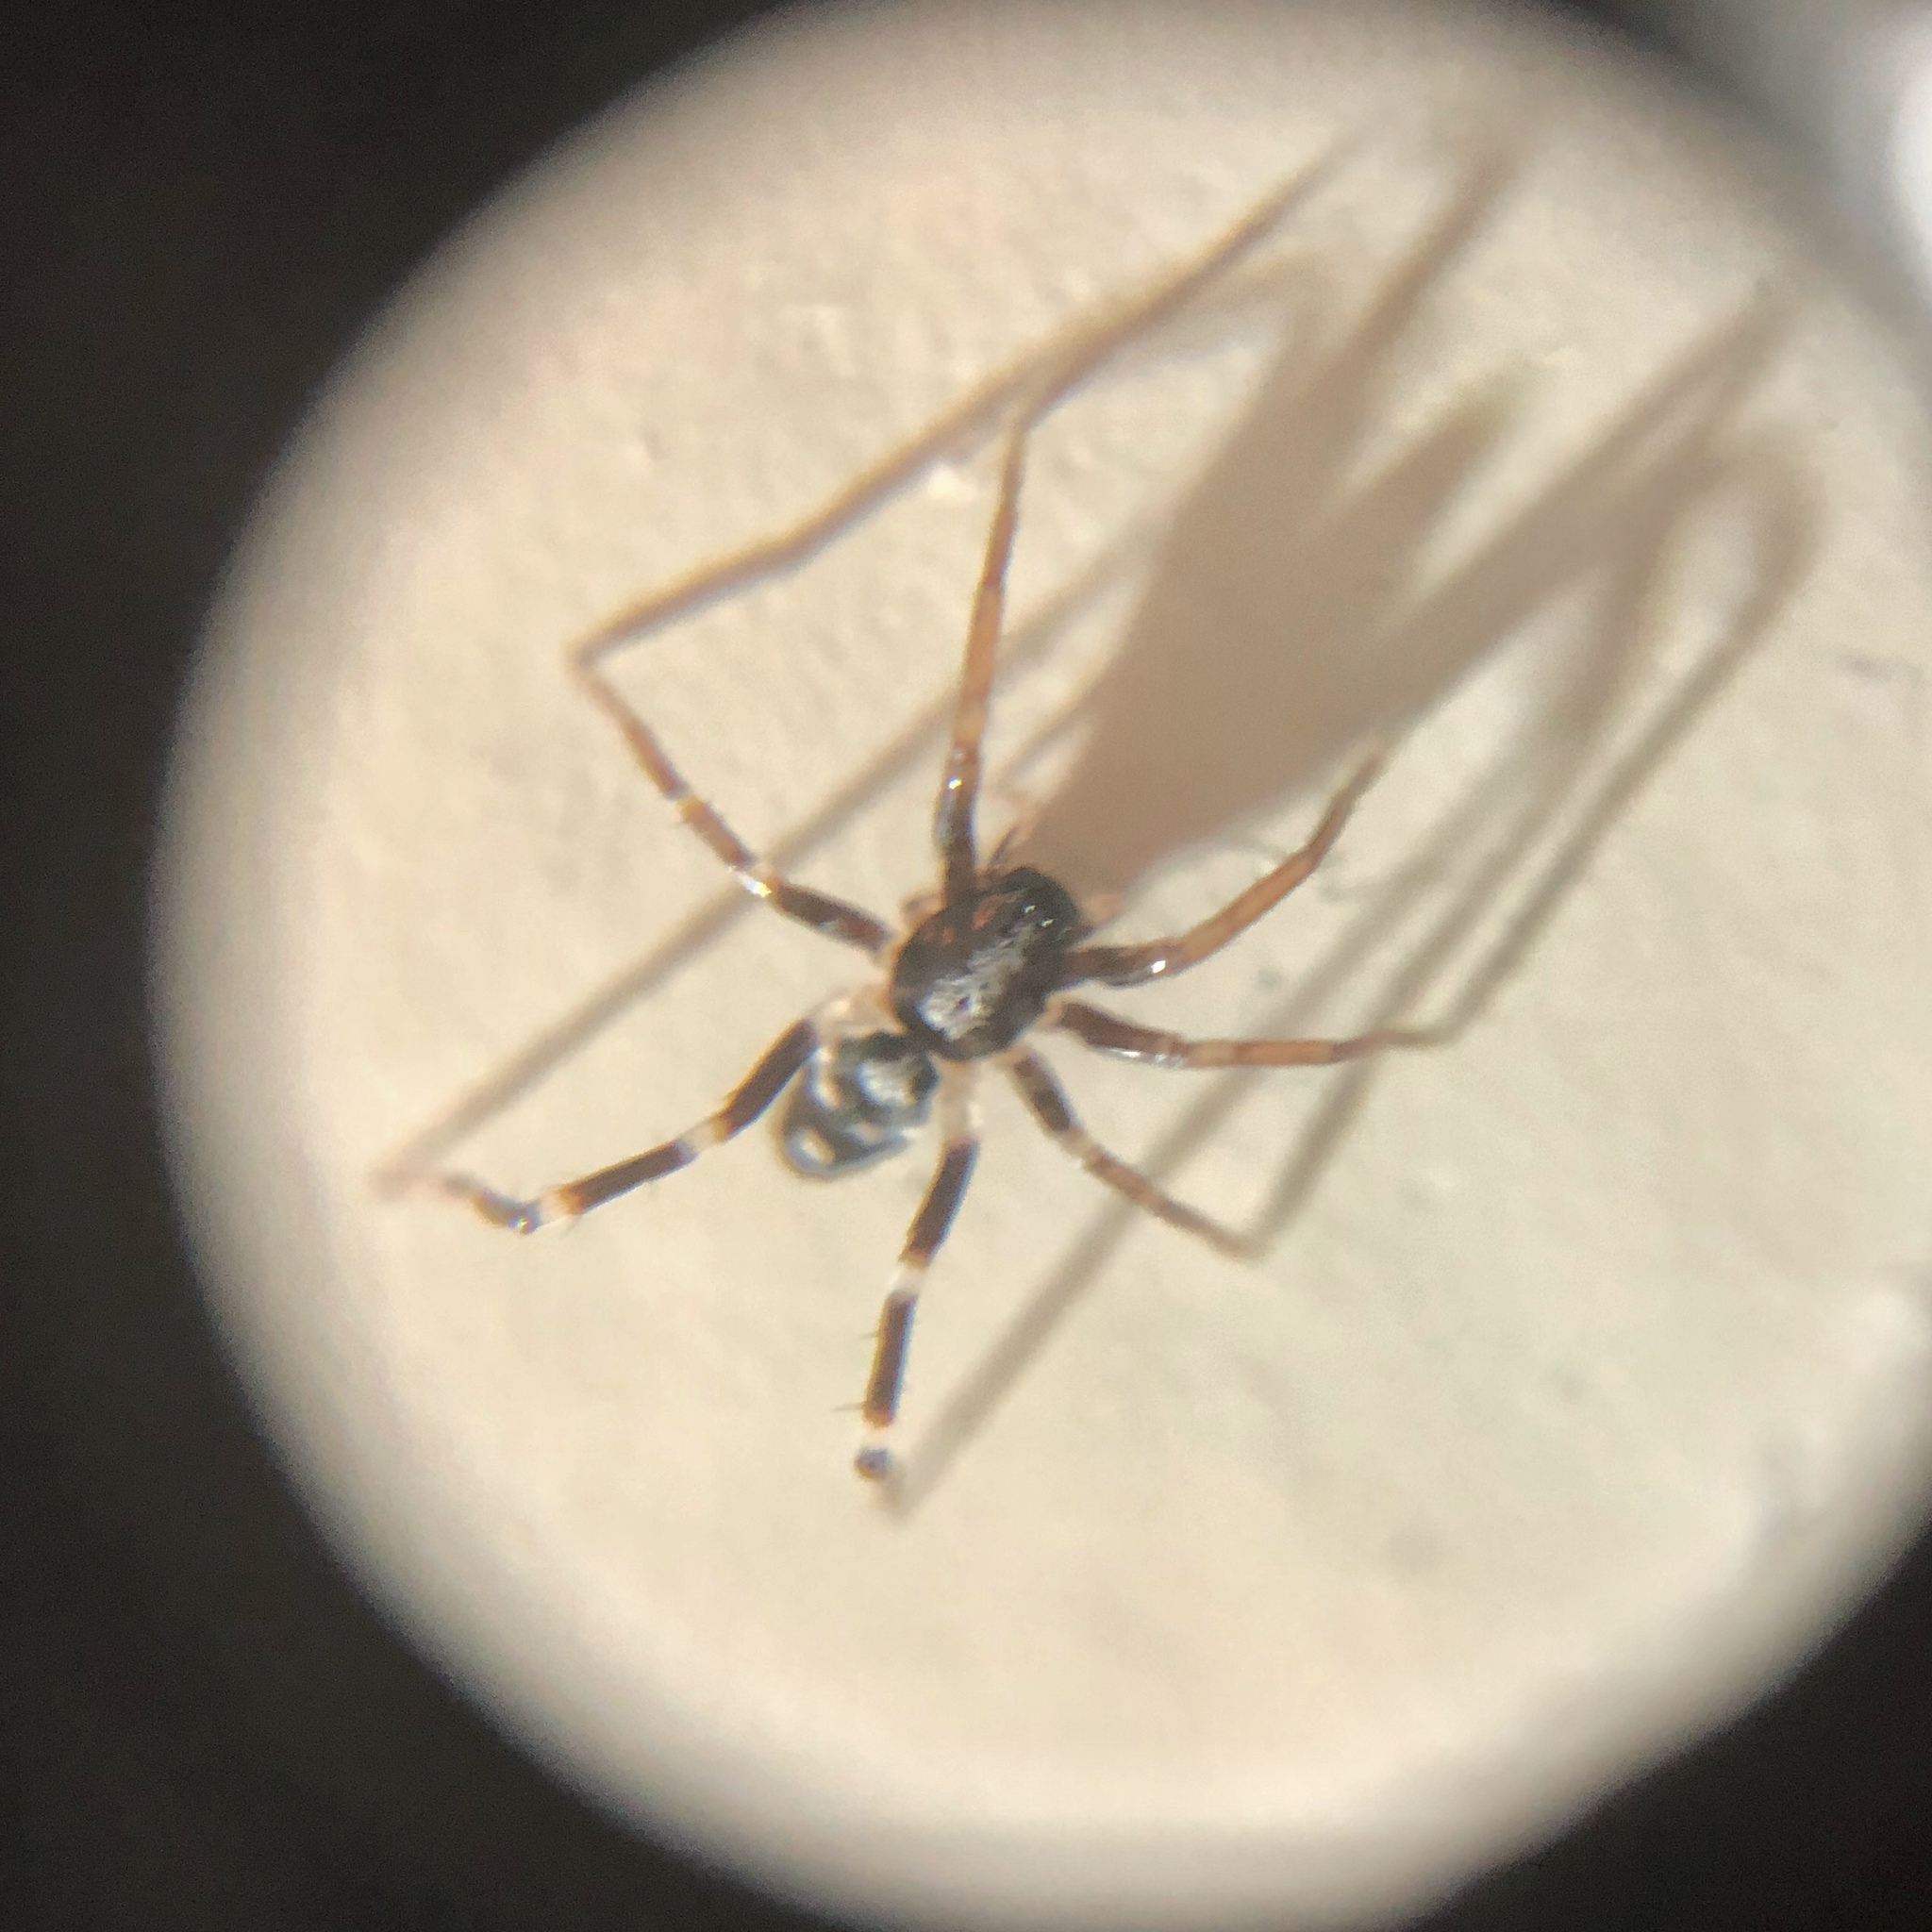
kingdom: Animalia
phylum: Arthropoda
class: Arachnida
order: Araneae
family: Corinnidae
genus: Nyssus
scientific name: Nyssus coloripes
